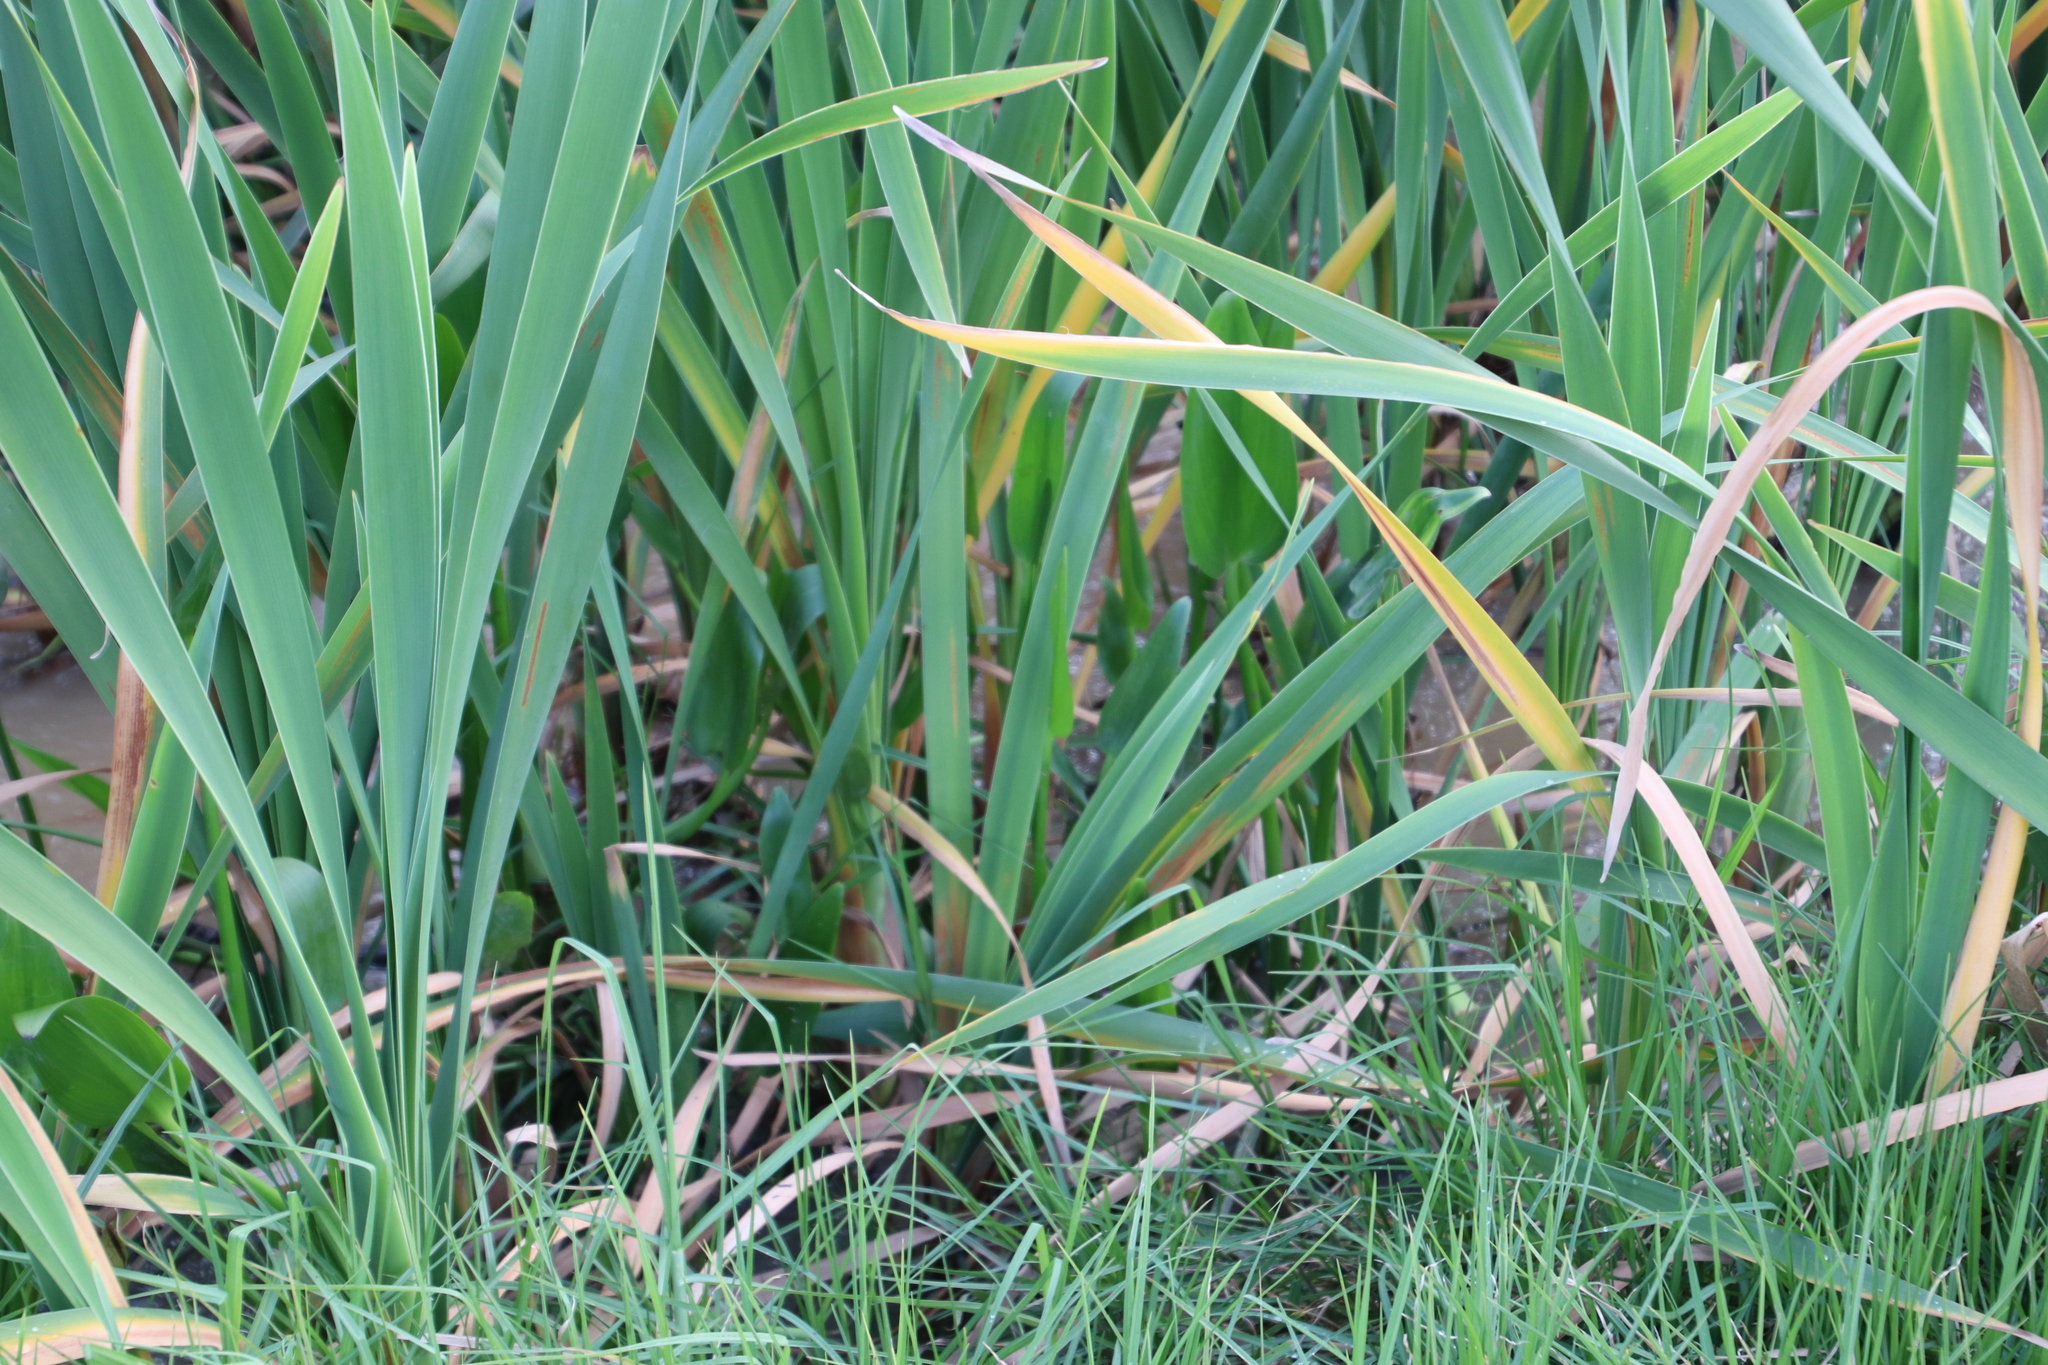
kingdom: Plantae
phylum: Tracheophyta
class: Liliopsida
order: Commelinales
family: Pontederiaceae
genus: Pontederia
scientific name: Pontederia cordata
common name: Pickerelweed
